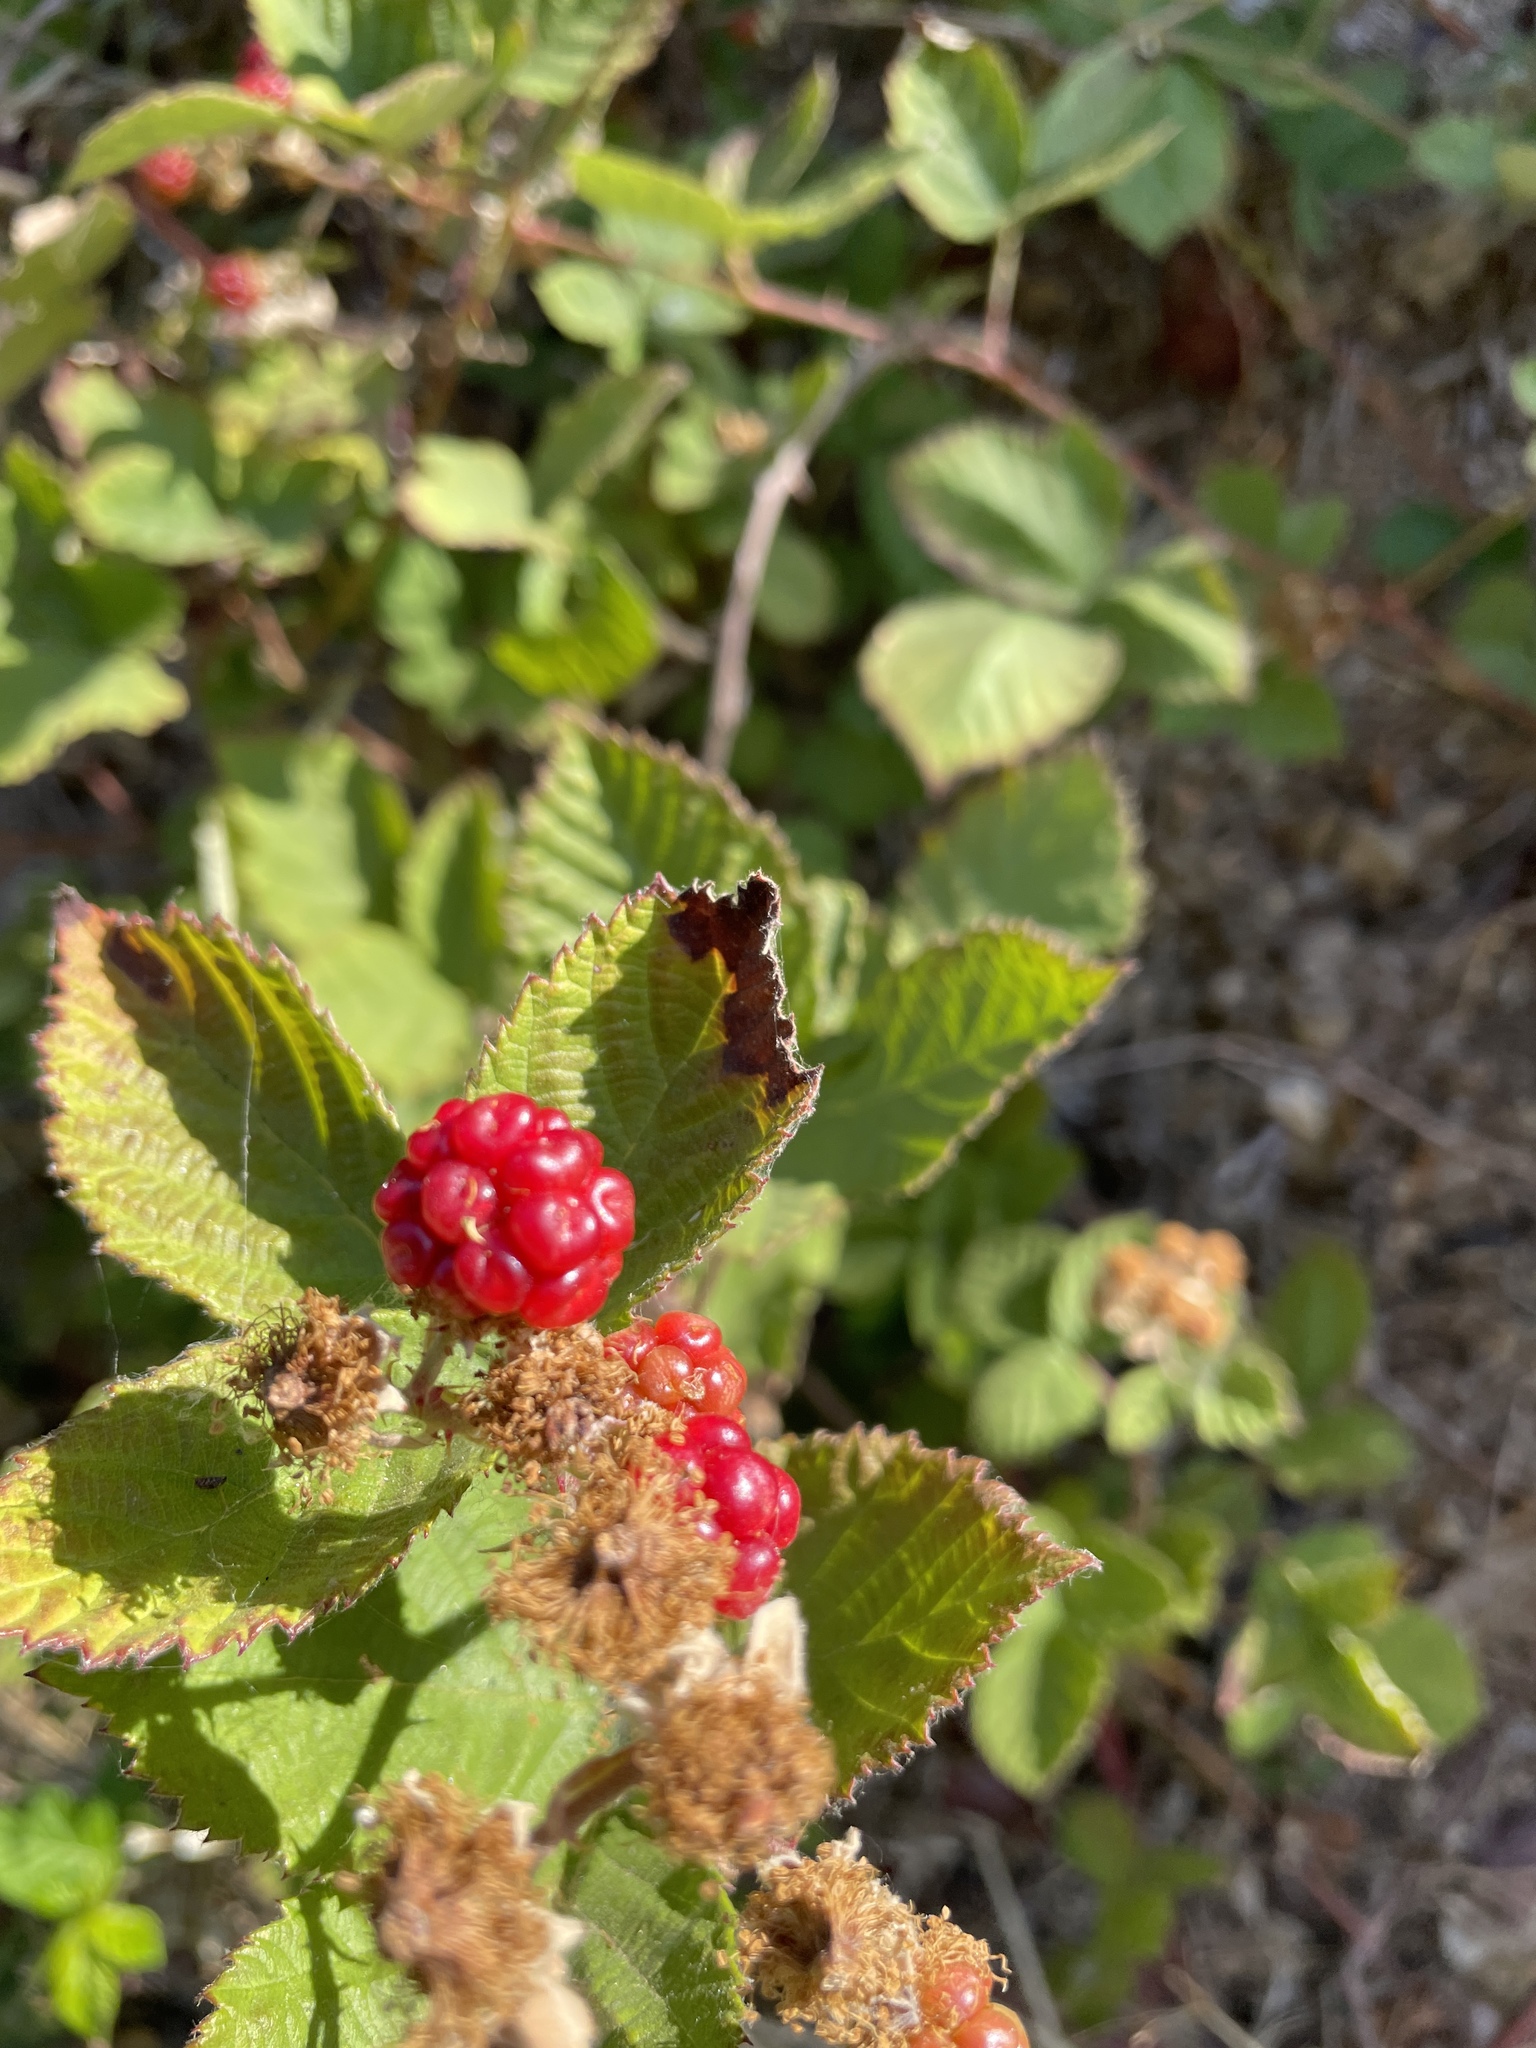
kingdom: Plantae
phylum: Tracheophyta
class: Magnoliopsida
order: Rosales
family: Rosaceae
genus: Rubus
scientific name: Rubus armeniacus
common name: Himalayan blackberry
